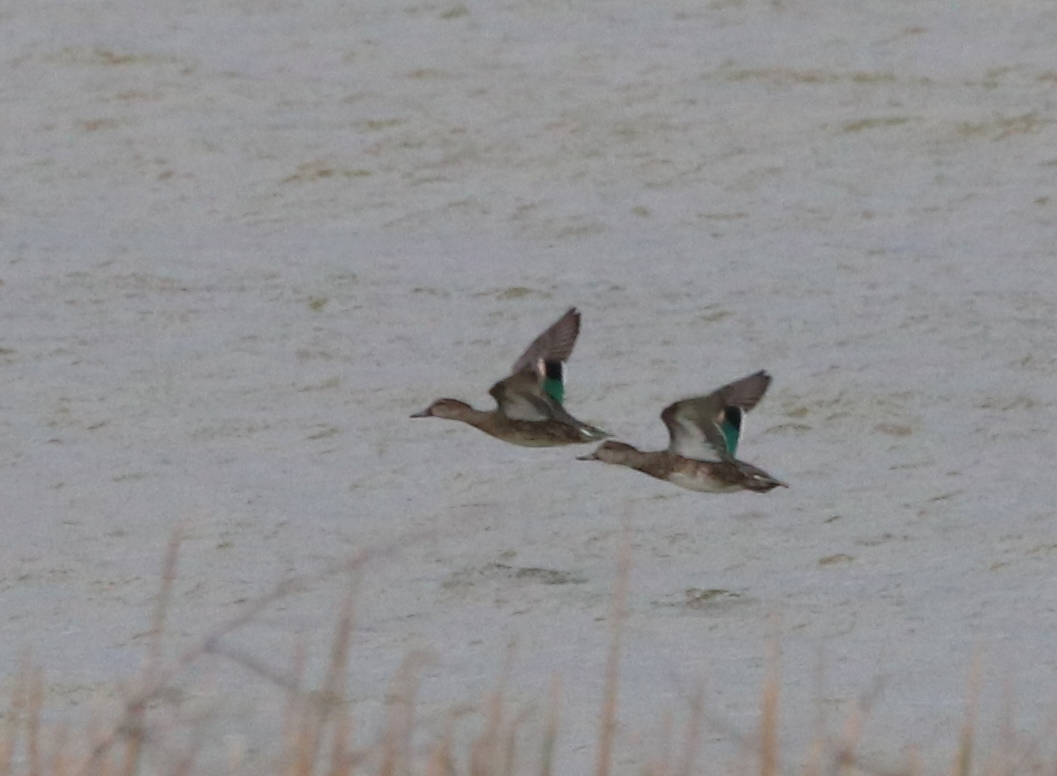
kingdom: Animalia
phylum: Chordata
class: Aves
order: Anseriformes
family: Anatidae
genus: Anas
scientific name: Anas crecca
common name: Eurasian teal
